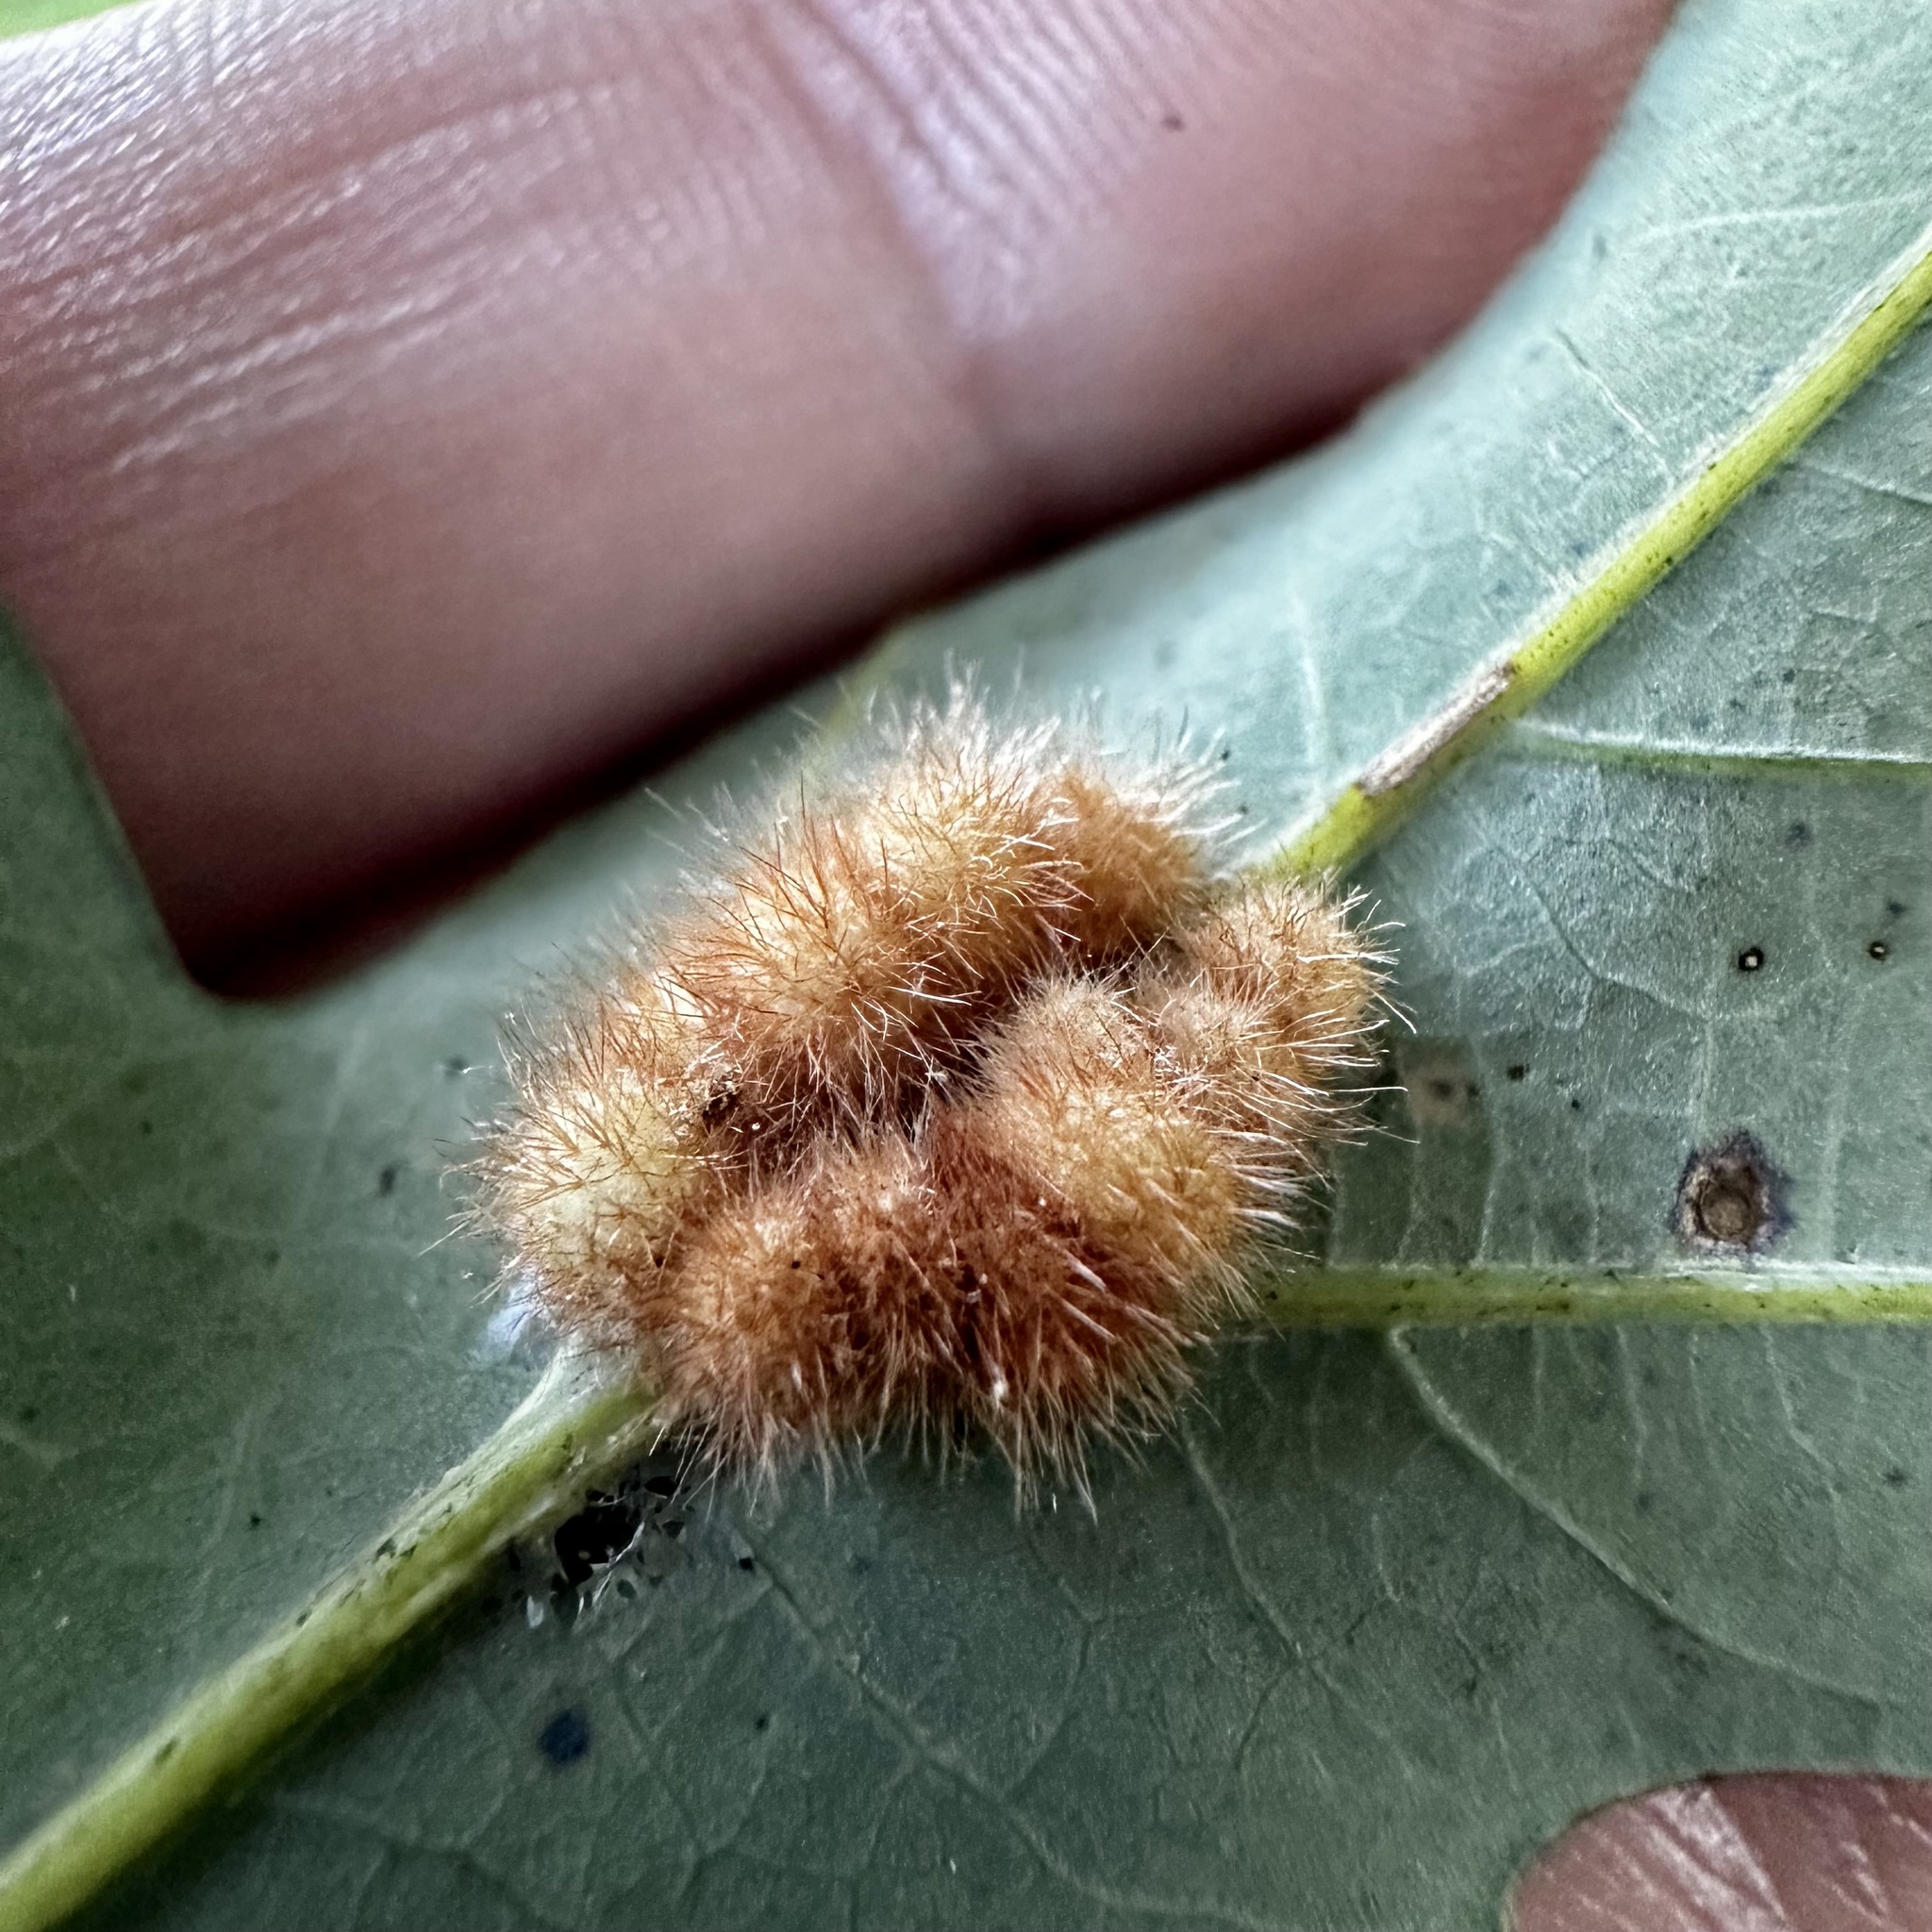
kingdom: Animalia
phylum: Arthropoda
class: Insecta
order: Hymenoptera
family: Cynipidae
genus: Andricus
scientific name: Andricus
